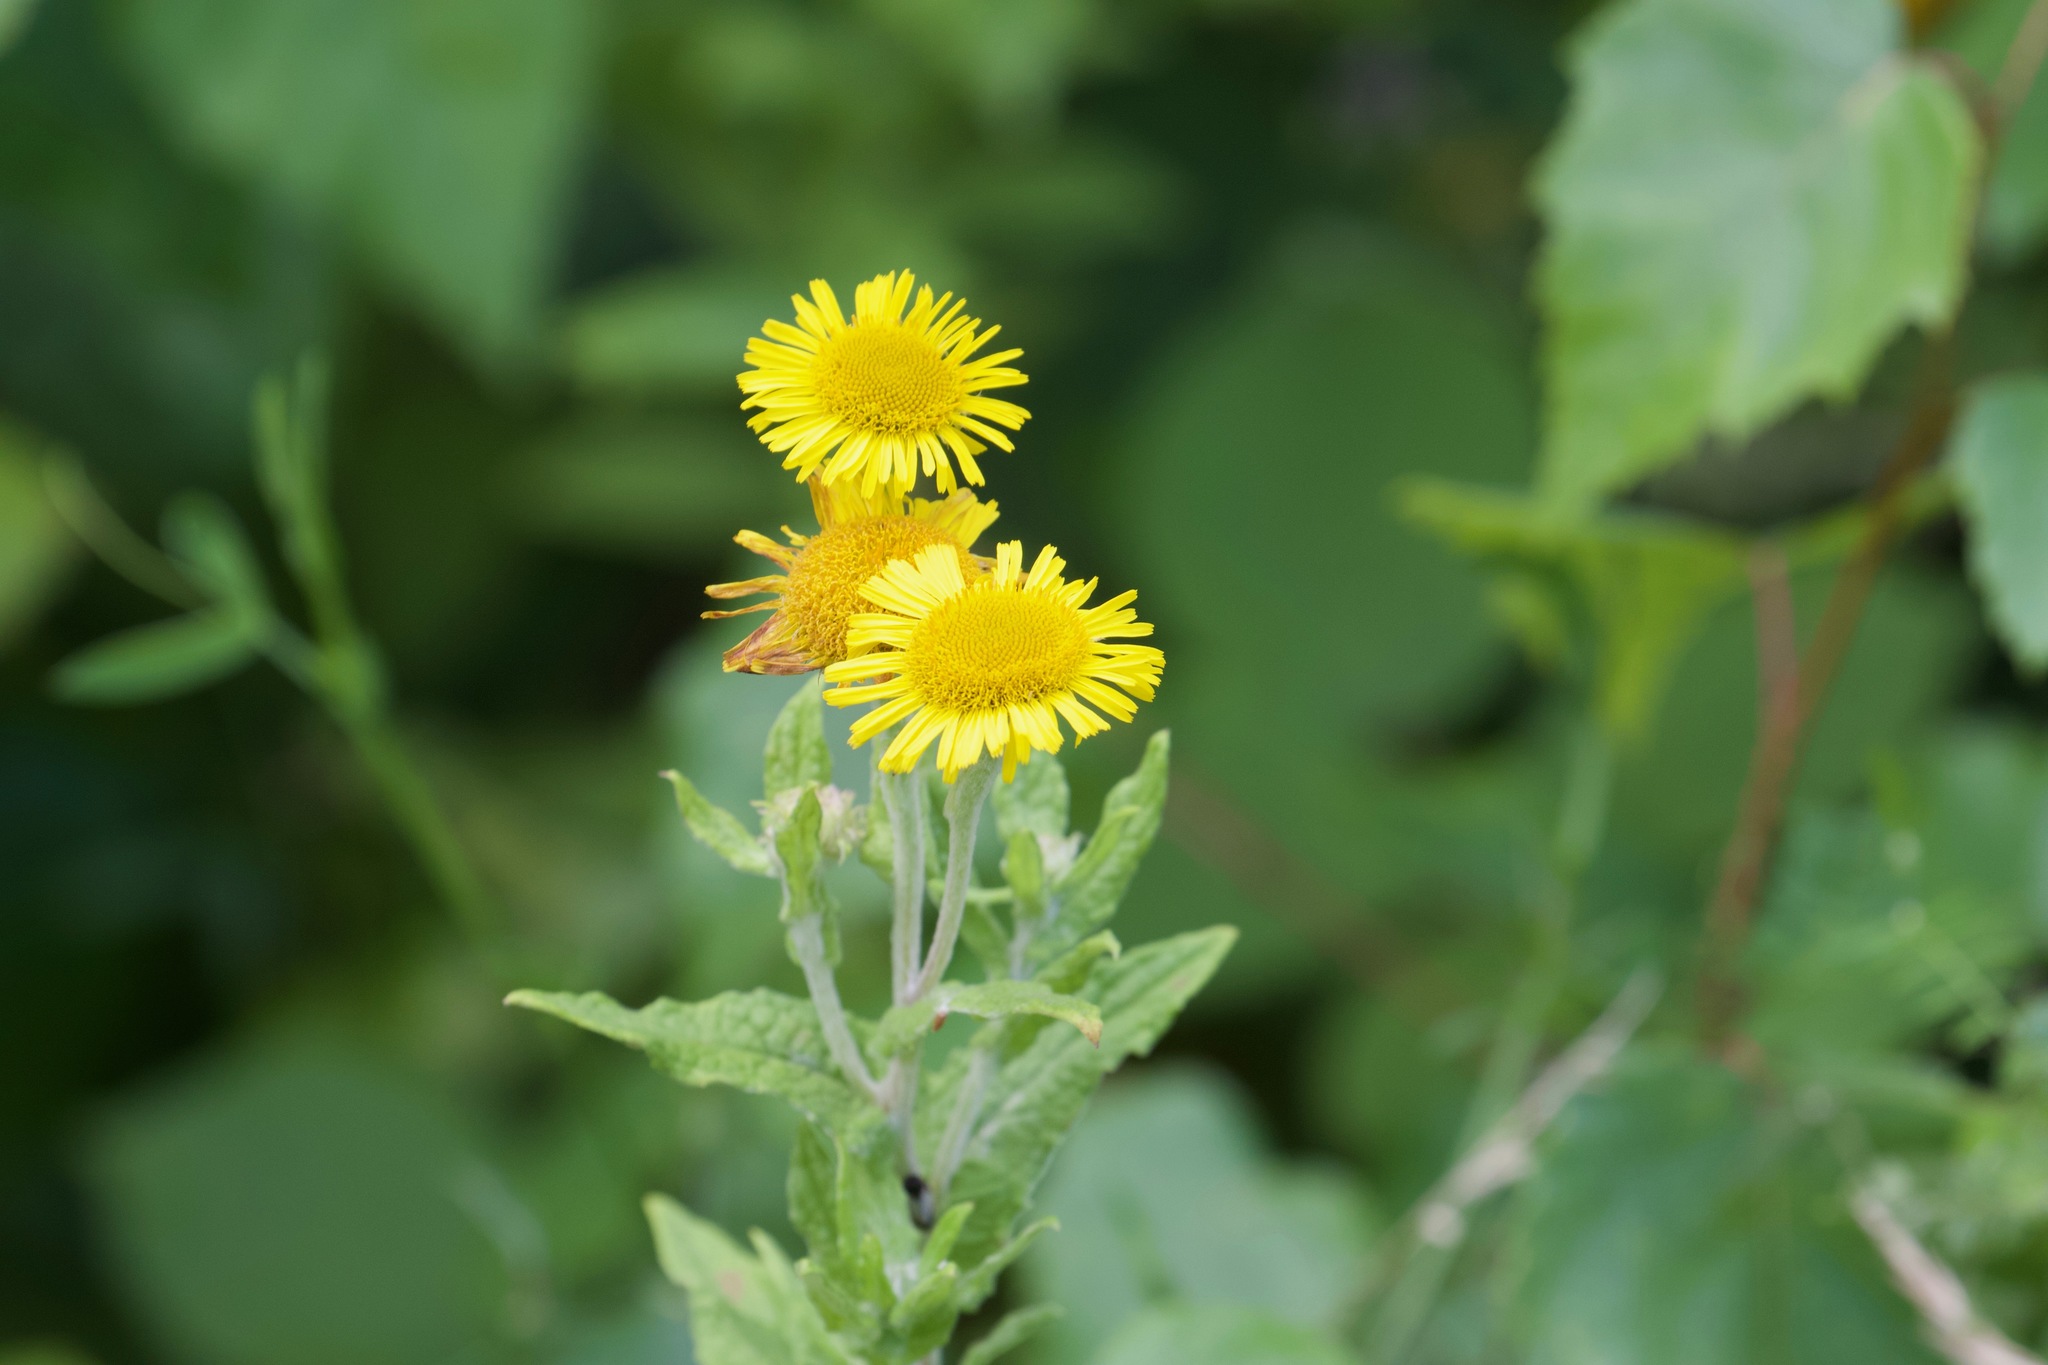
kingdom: Plantae
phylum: Tracheophyta
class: Magnoliopsida
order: Asterales
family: Asteraceae
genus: Pulicaria
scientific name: Pulicaria dysenterica
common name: Common fleabane
